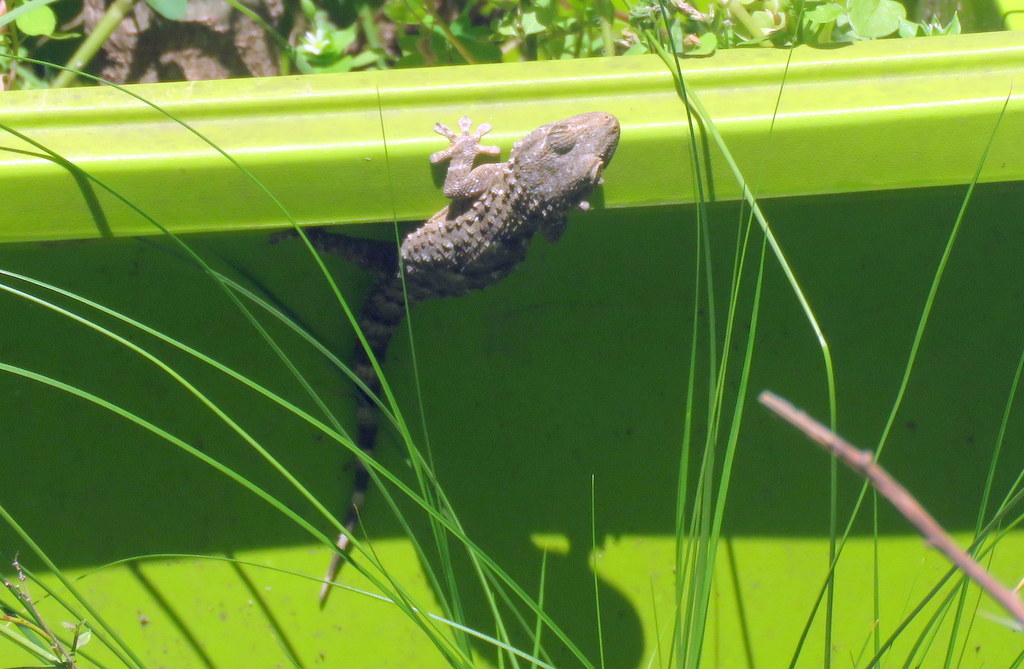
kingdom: Animalia
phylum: Chordata
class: Squamata
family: Phyllodactylidae
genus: Tarentola
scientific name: Tarentola mauritanica
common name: Moorish gecko
